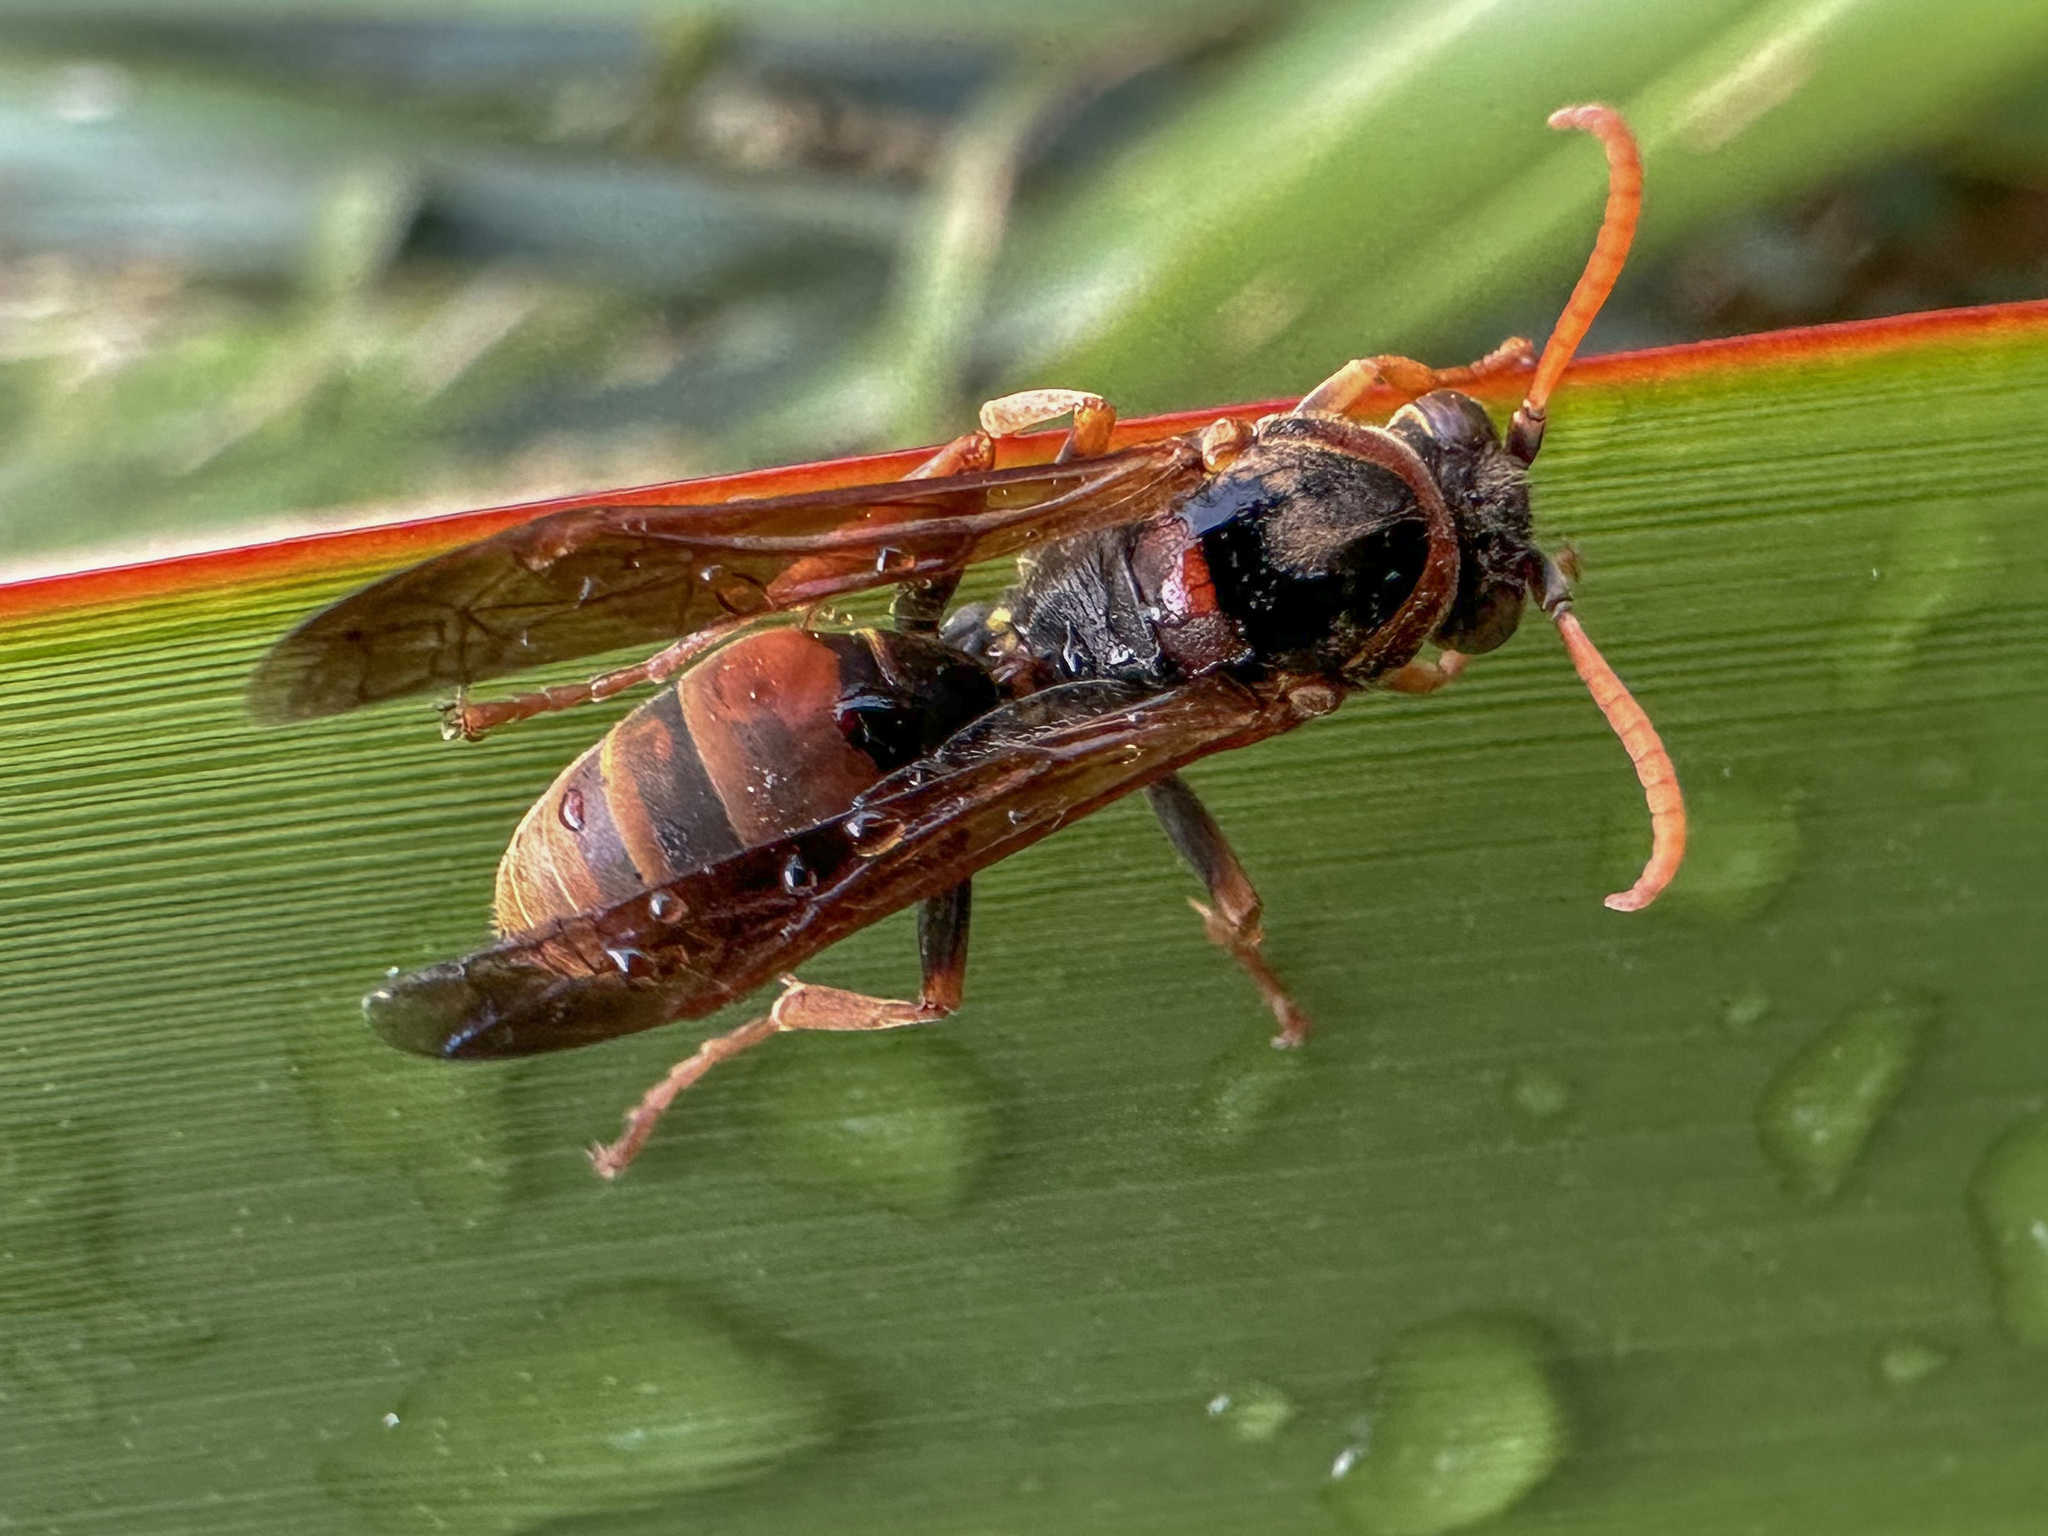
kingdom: Animalia
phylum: Arthropoda
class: Insecta
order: Hymenoptera
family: Eumenidae
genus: Polistes
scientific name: Polistes humilis
